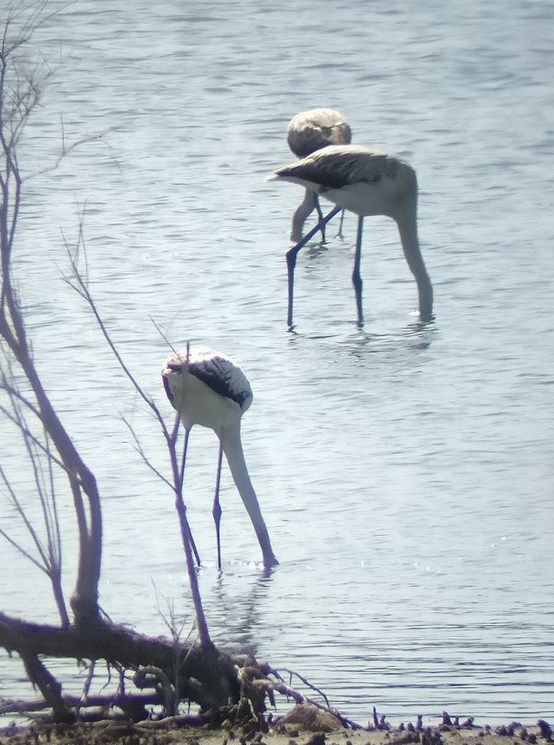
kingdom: Animalia
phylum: Chordata
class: Aves
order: Phoenicopteriformes
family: Phoenicopteridae
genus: Phoenicopterus
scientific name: Phoenicopterus roseus
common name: Greater flamingo
